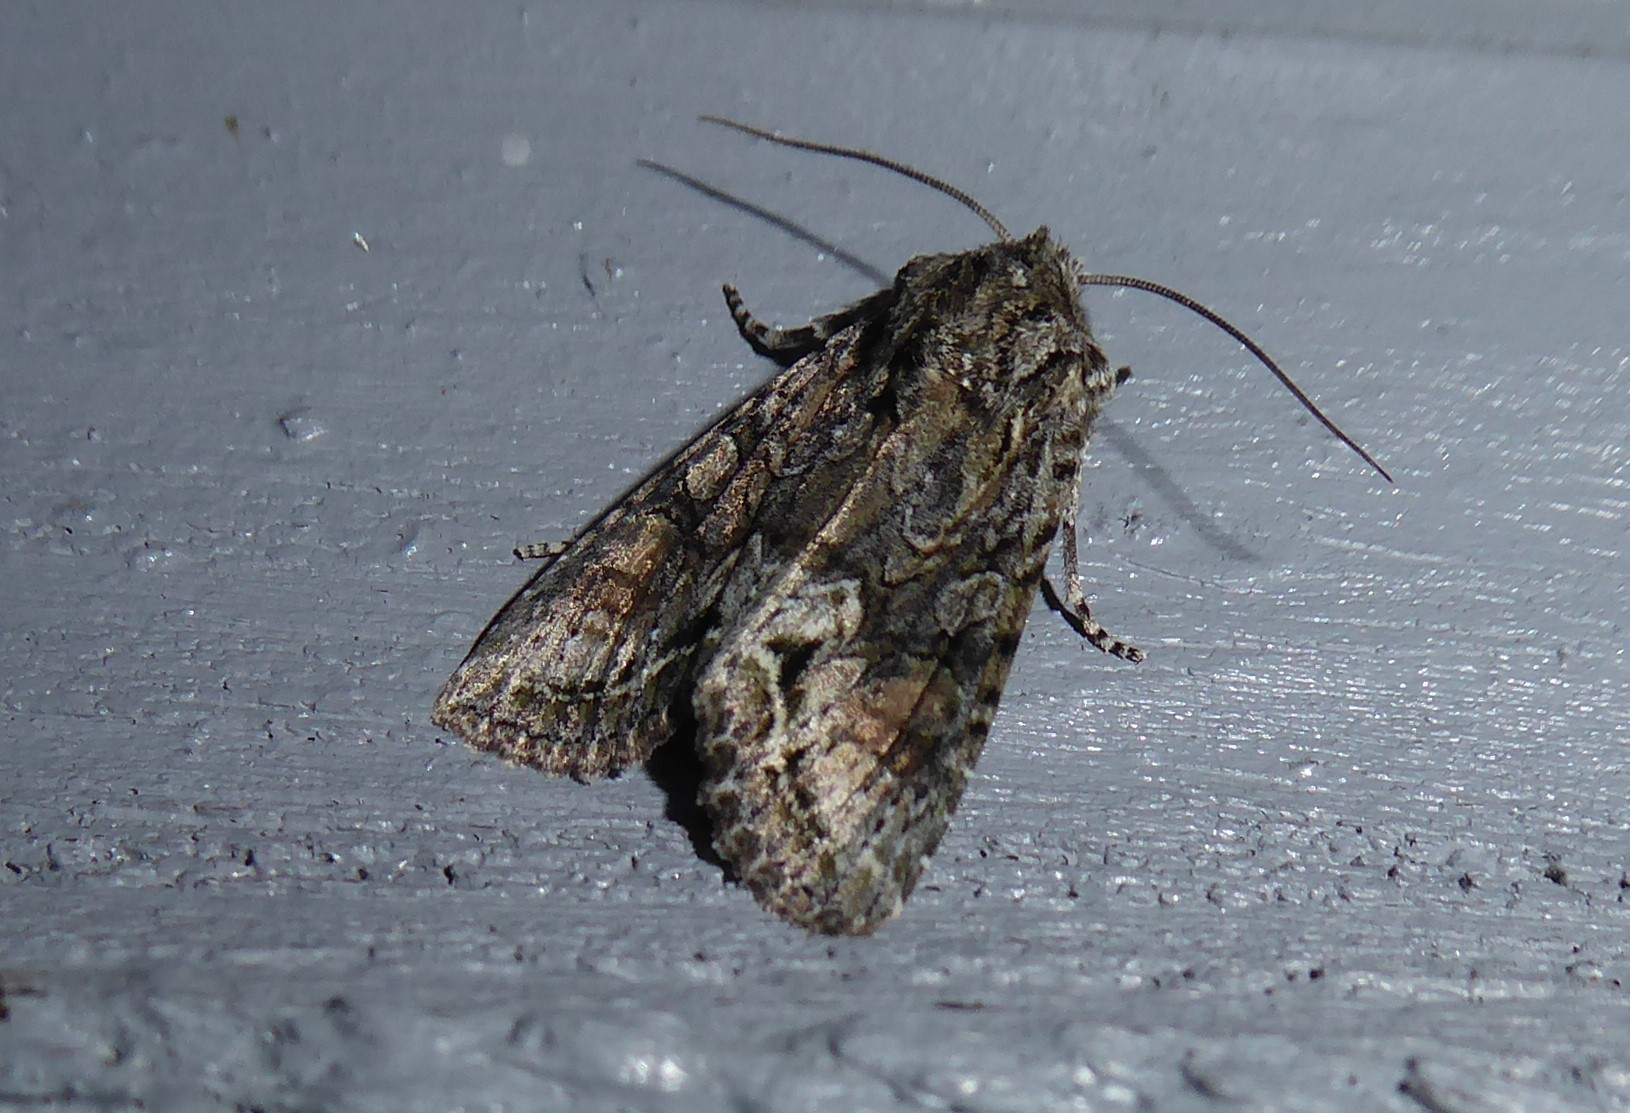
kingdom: Animalia
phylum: Arthropoda
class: Insecta
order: Lepidoptera
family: Noctuidae
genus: Ichneutica
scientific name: Ichneutica mutans
